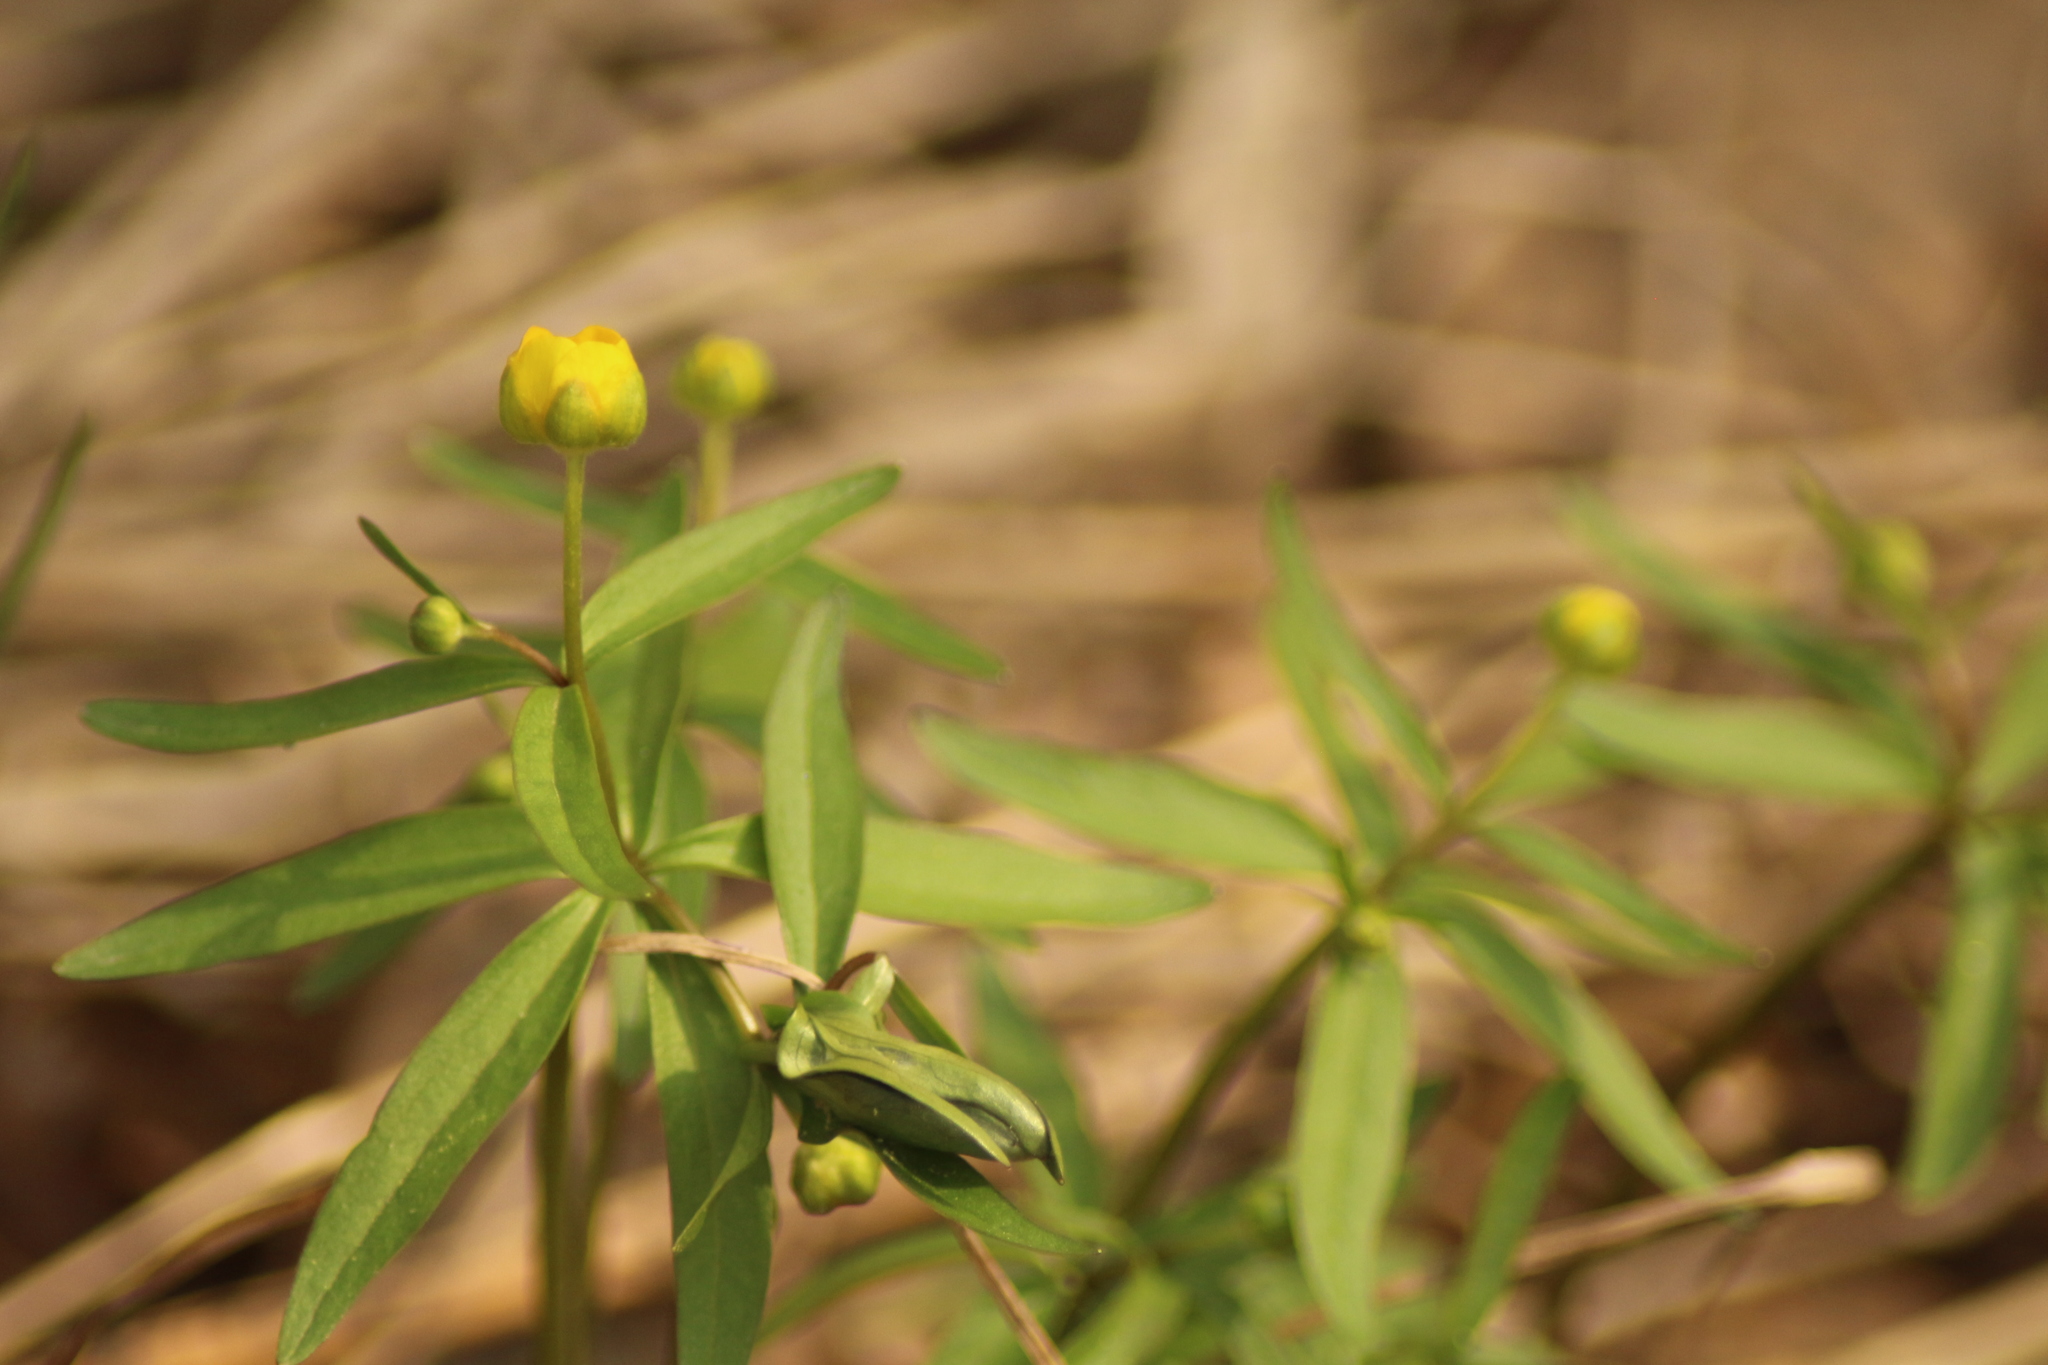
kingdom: Plantae
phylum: Tracheophyta
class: Magnoliopsida
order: Ranunculales
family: Ranunculaceae
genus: Ranunculus
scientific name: Ranunculus monophyllus
